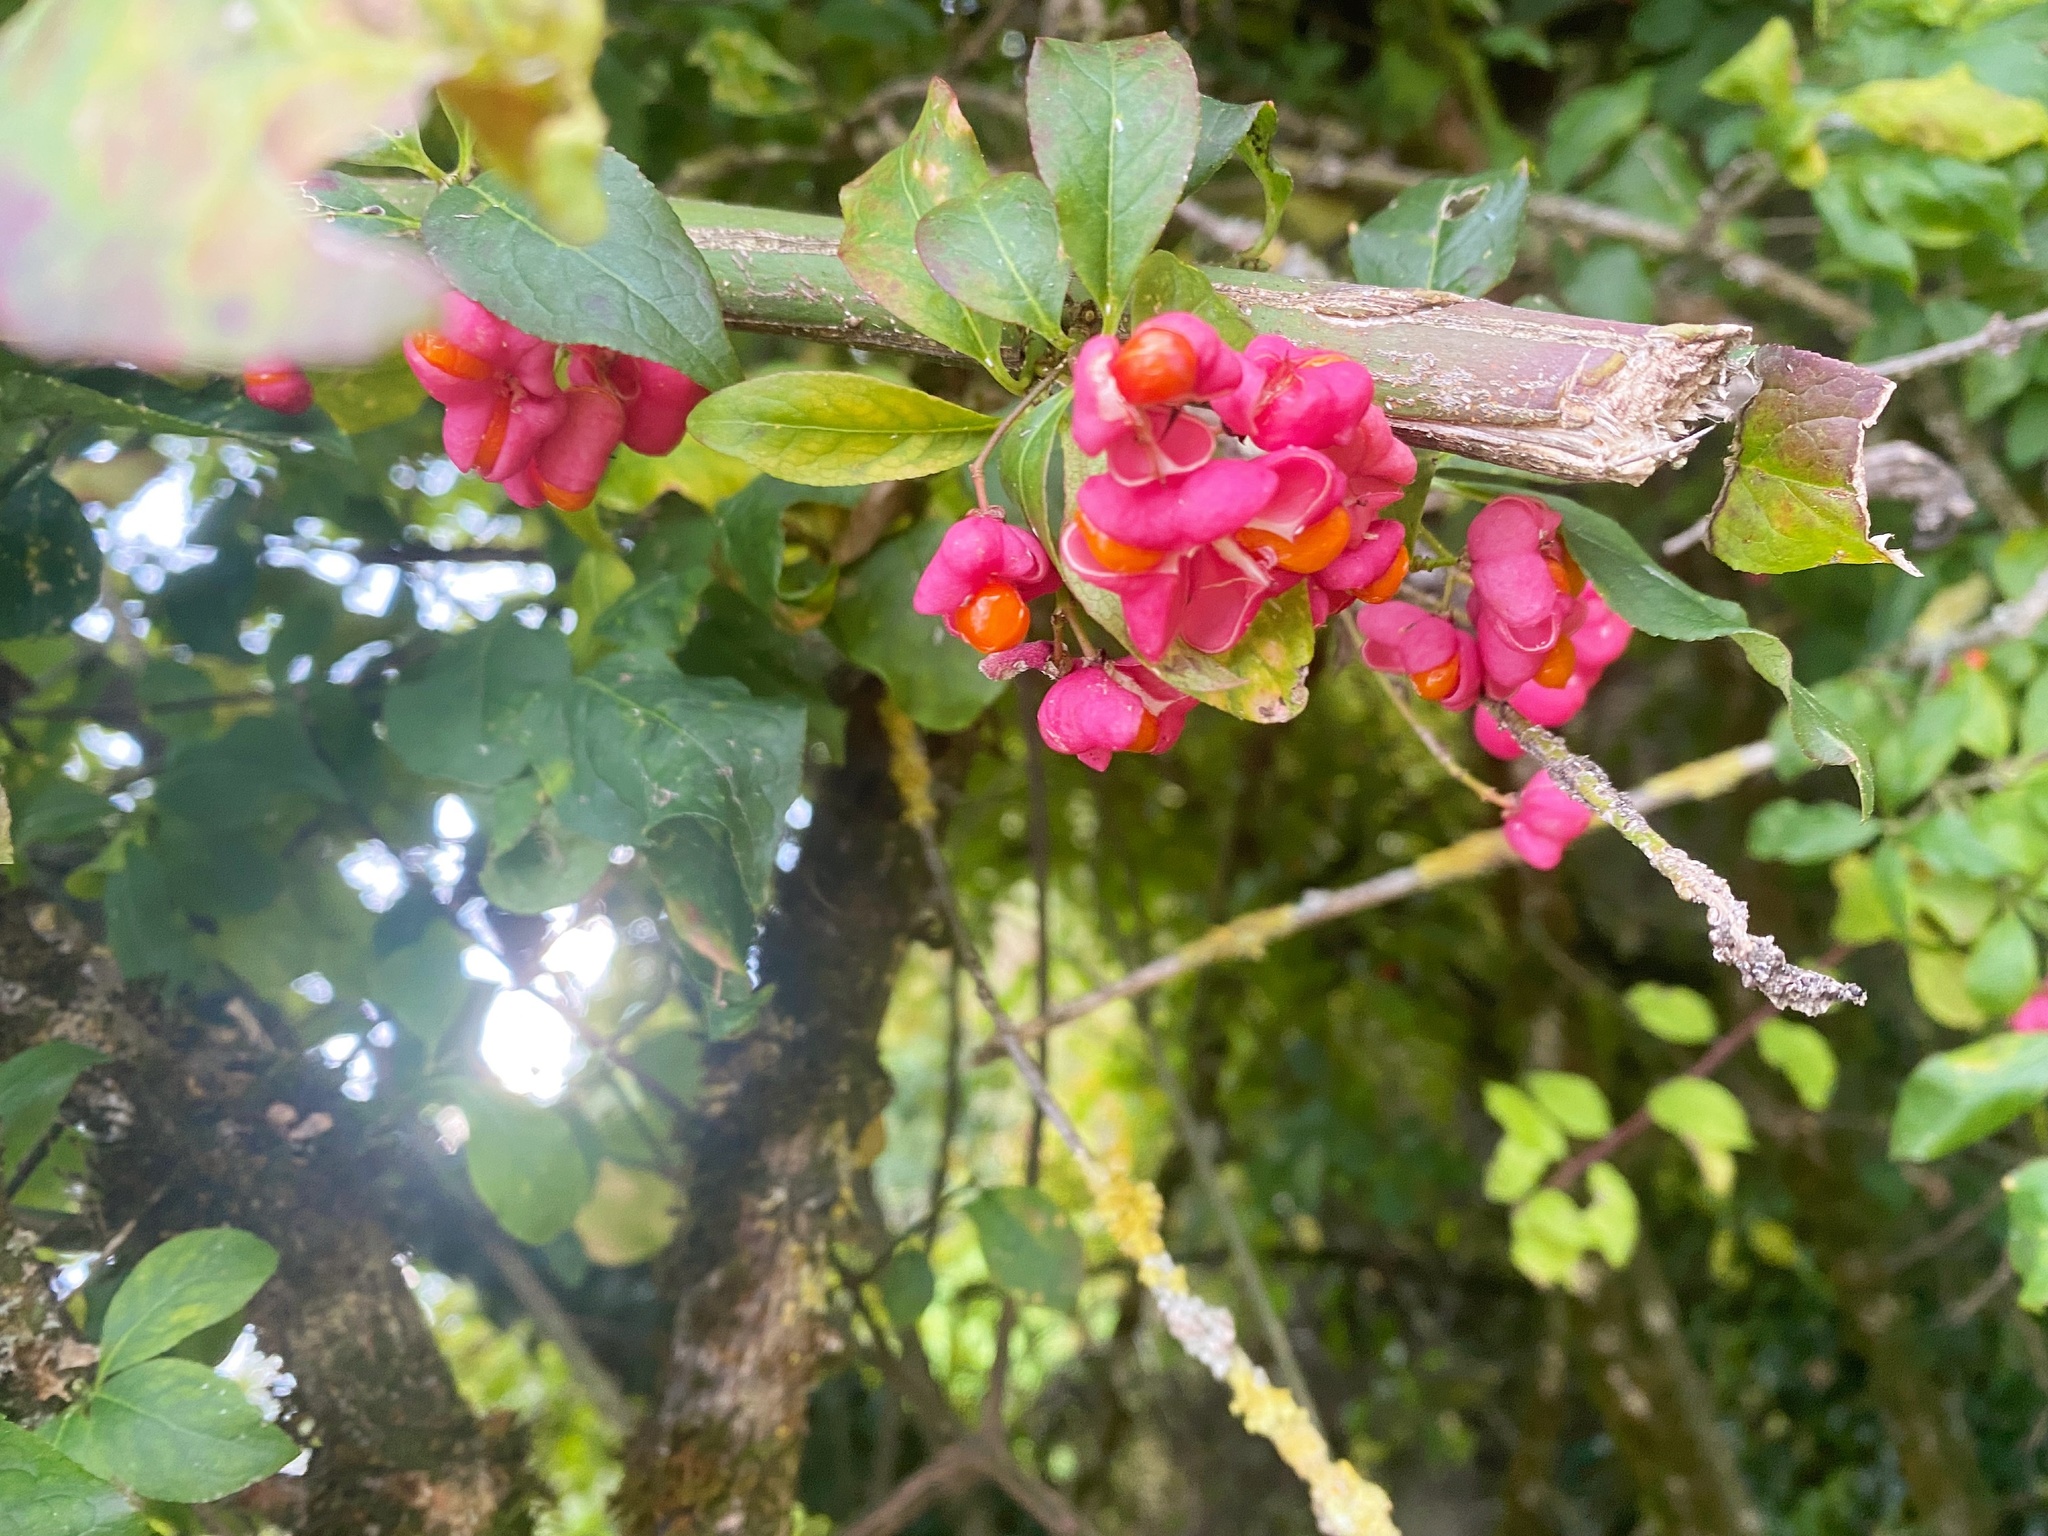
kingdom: Plantae
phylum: Tracheophyta
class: Magnoliopsida
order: Celastrales
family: Celastraceae
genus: Euonymus
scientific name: Euonymus europaeus
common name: Spindle
